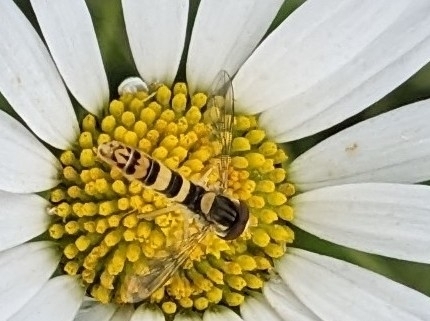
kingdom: Animalia
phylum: Arthropoda
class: Insecta
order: Diptera
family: Syrphidae
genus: Sphaerophoria
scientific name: Sphaerophoria scripta
